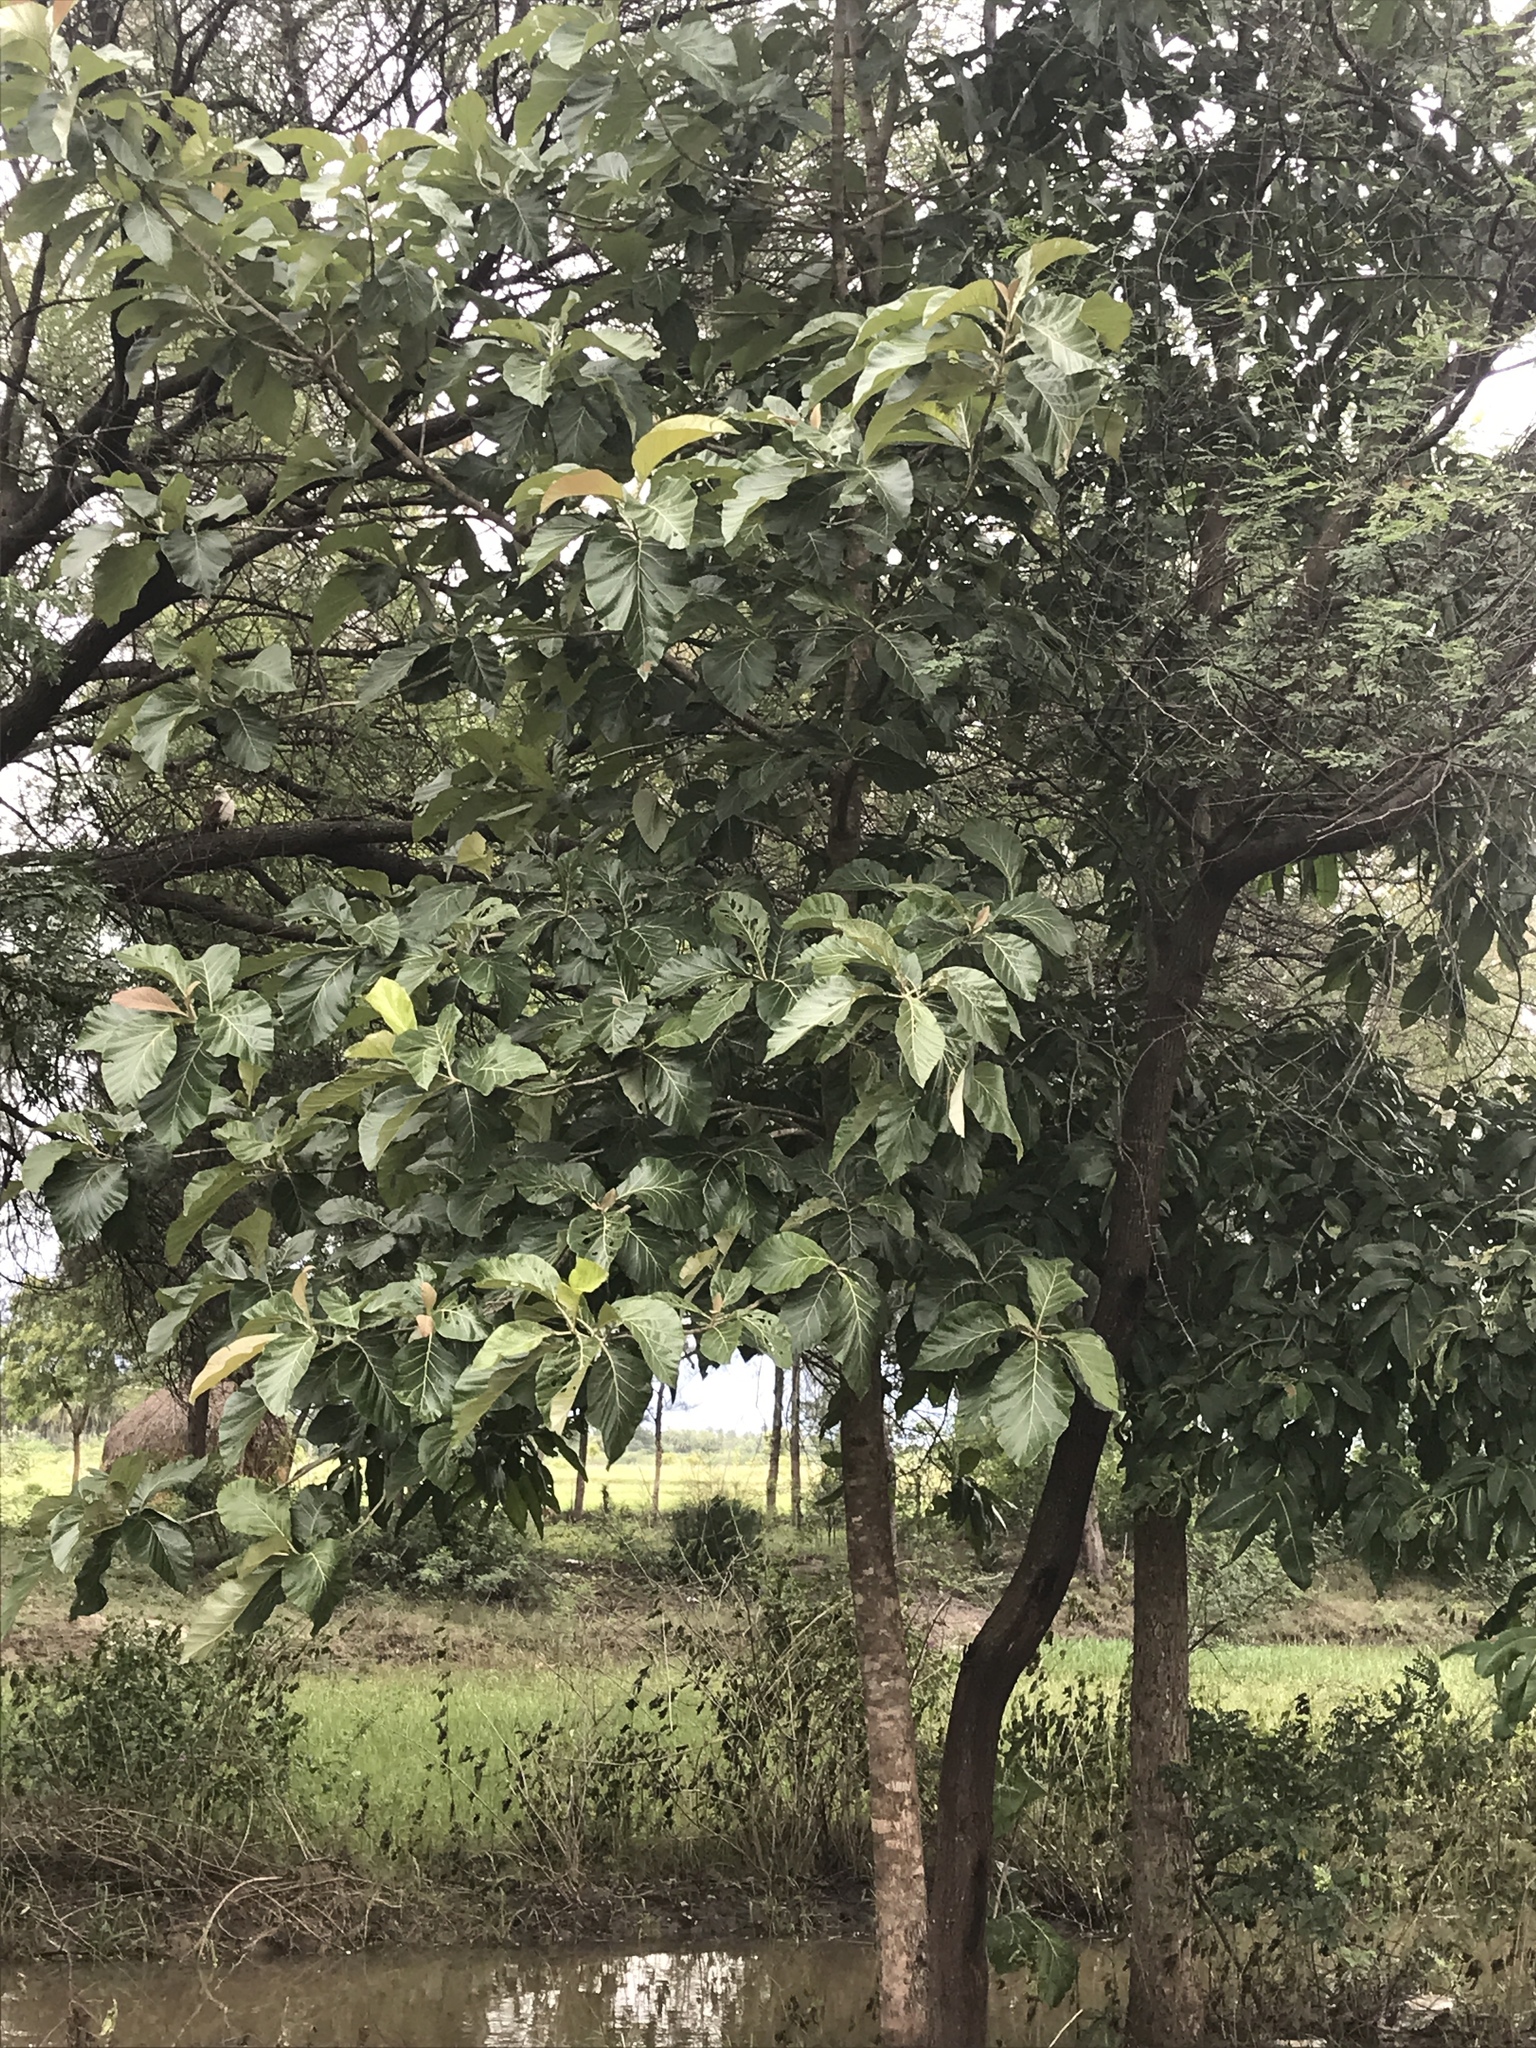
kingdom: Plantae
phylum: Tracheophyta
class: Magnoliopsida
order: Lamiales
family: Lamiaceae
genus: Tectona
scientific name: Tectona grandis
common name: Teak
